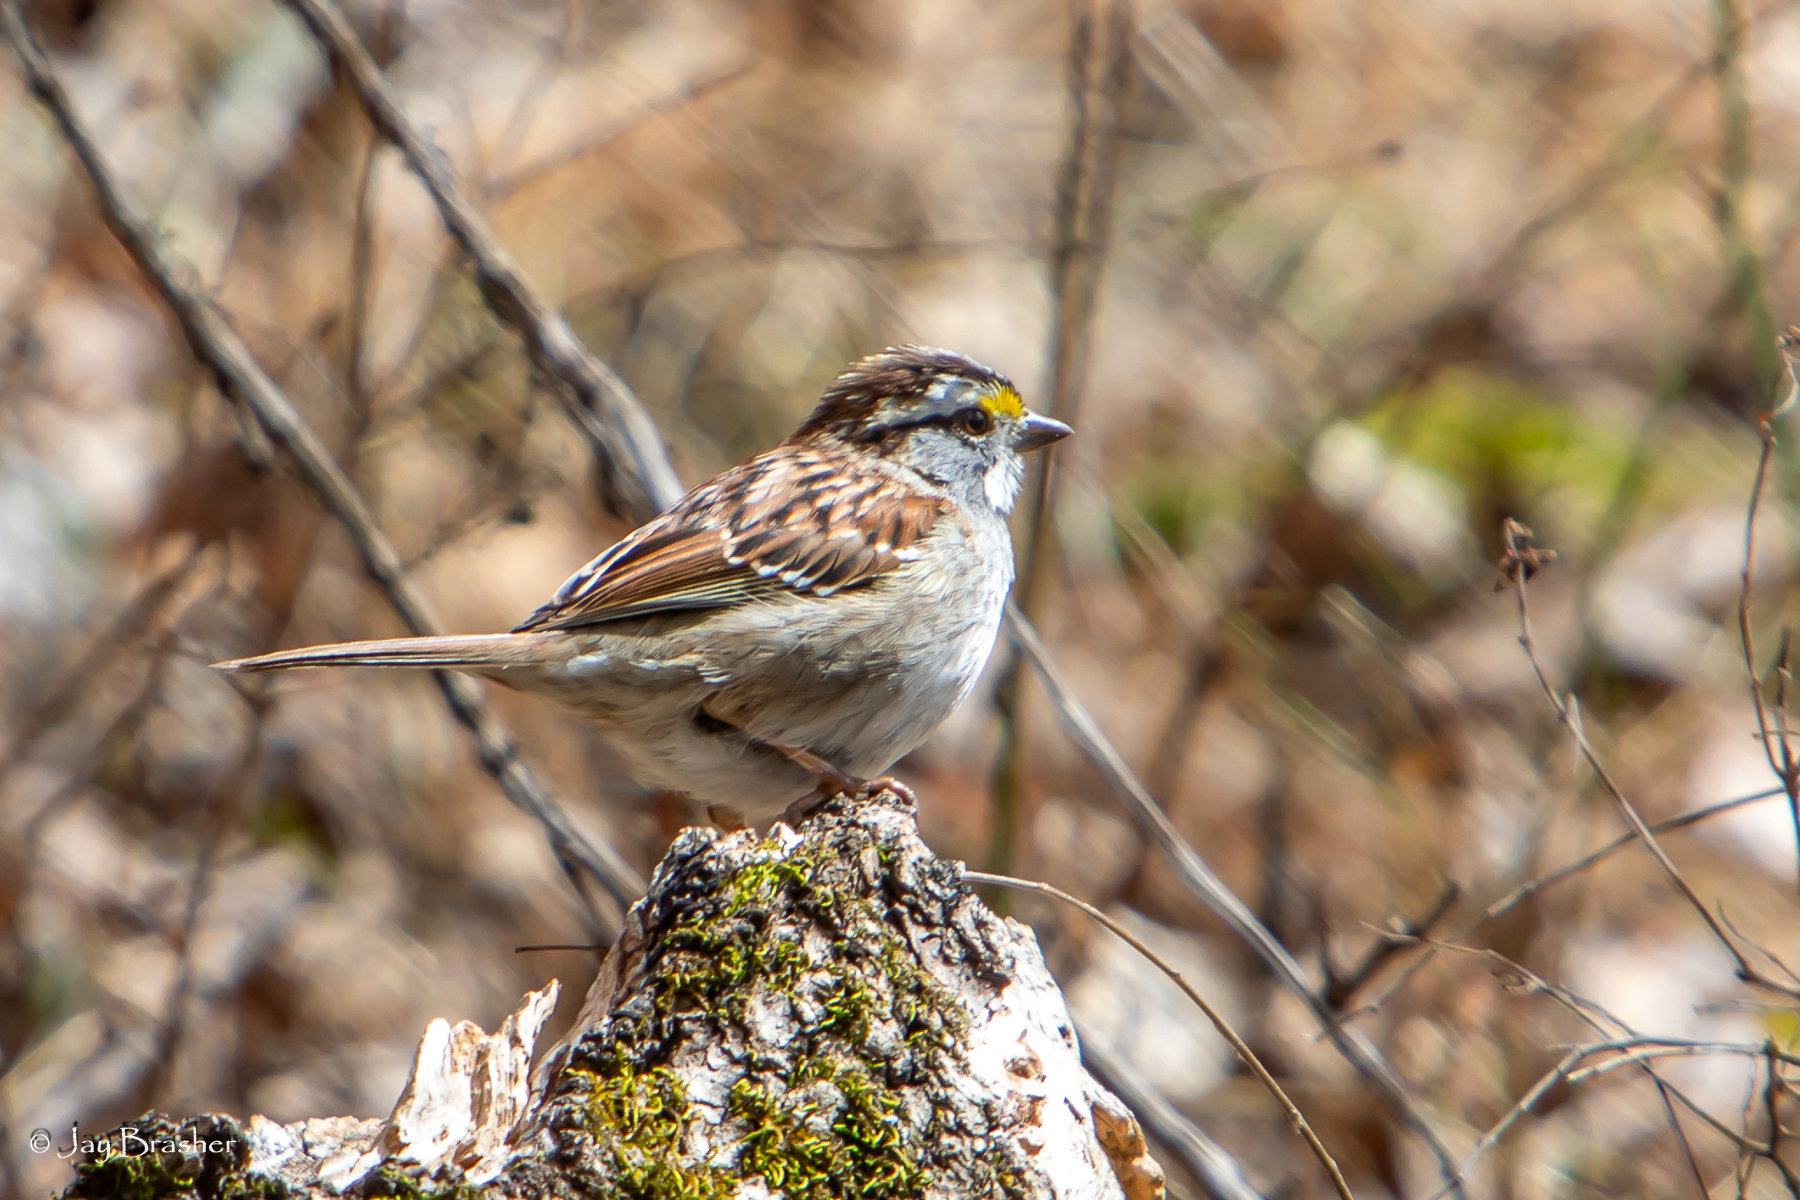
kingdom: Animalia
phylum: Chordata
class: Aves
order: Passeriformes
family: Passerellidae
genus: Zonotrichia
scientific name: Zonotrichia albicollis
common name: White-throated sparrow
